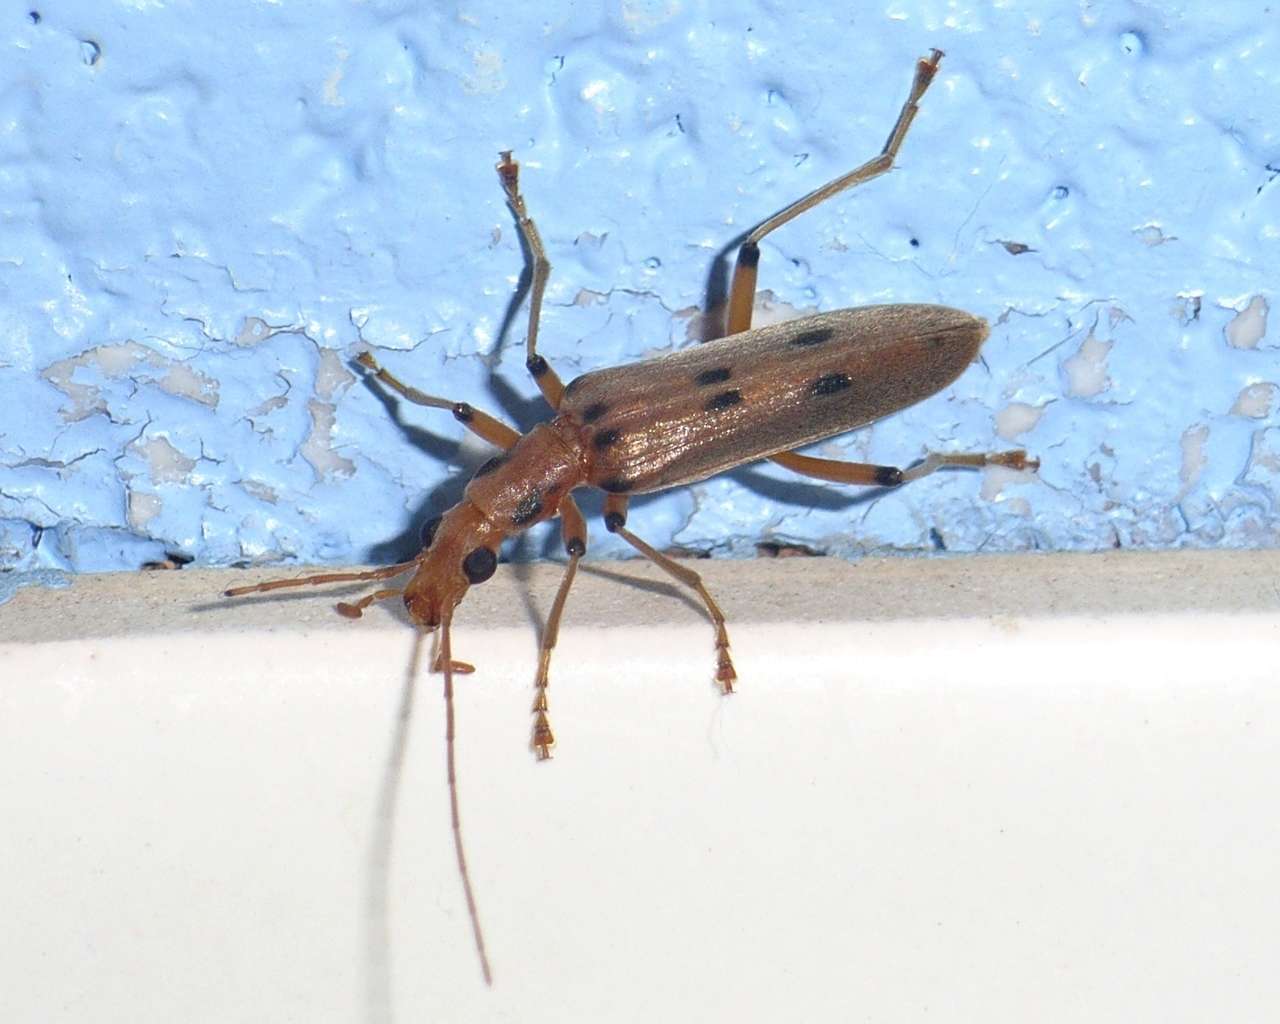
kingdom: Animalia
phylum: Arthropoda
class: Insecta
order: Coleoptera
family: Oedemeridae
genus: Parisopalpus
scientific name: Parisopalpus
